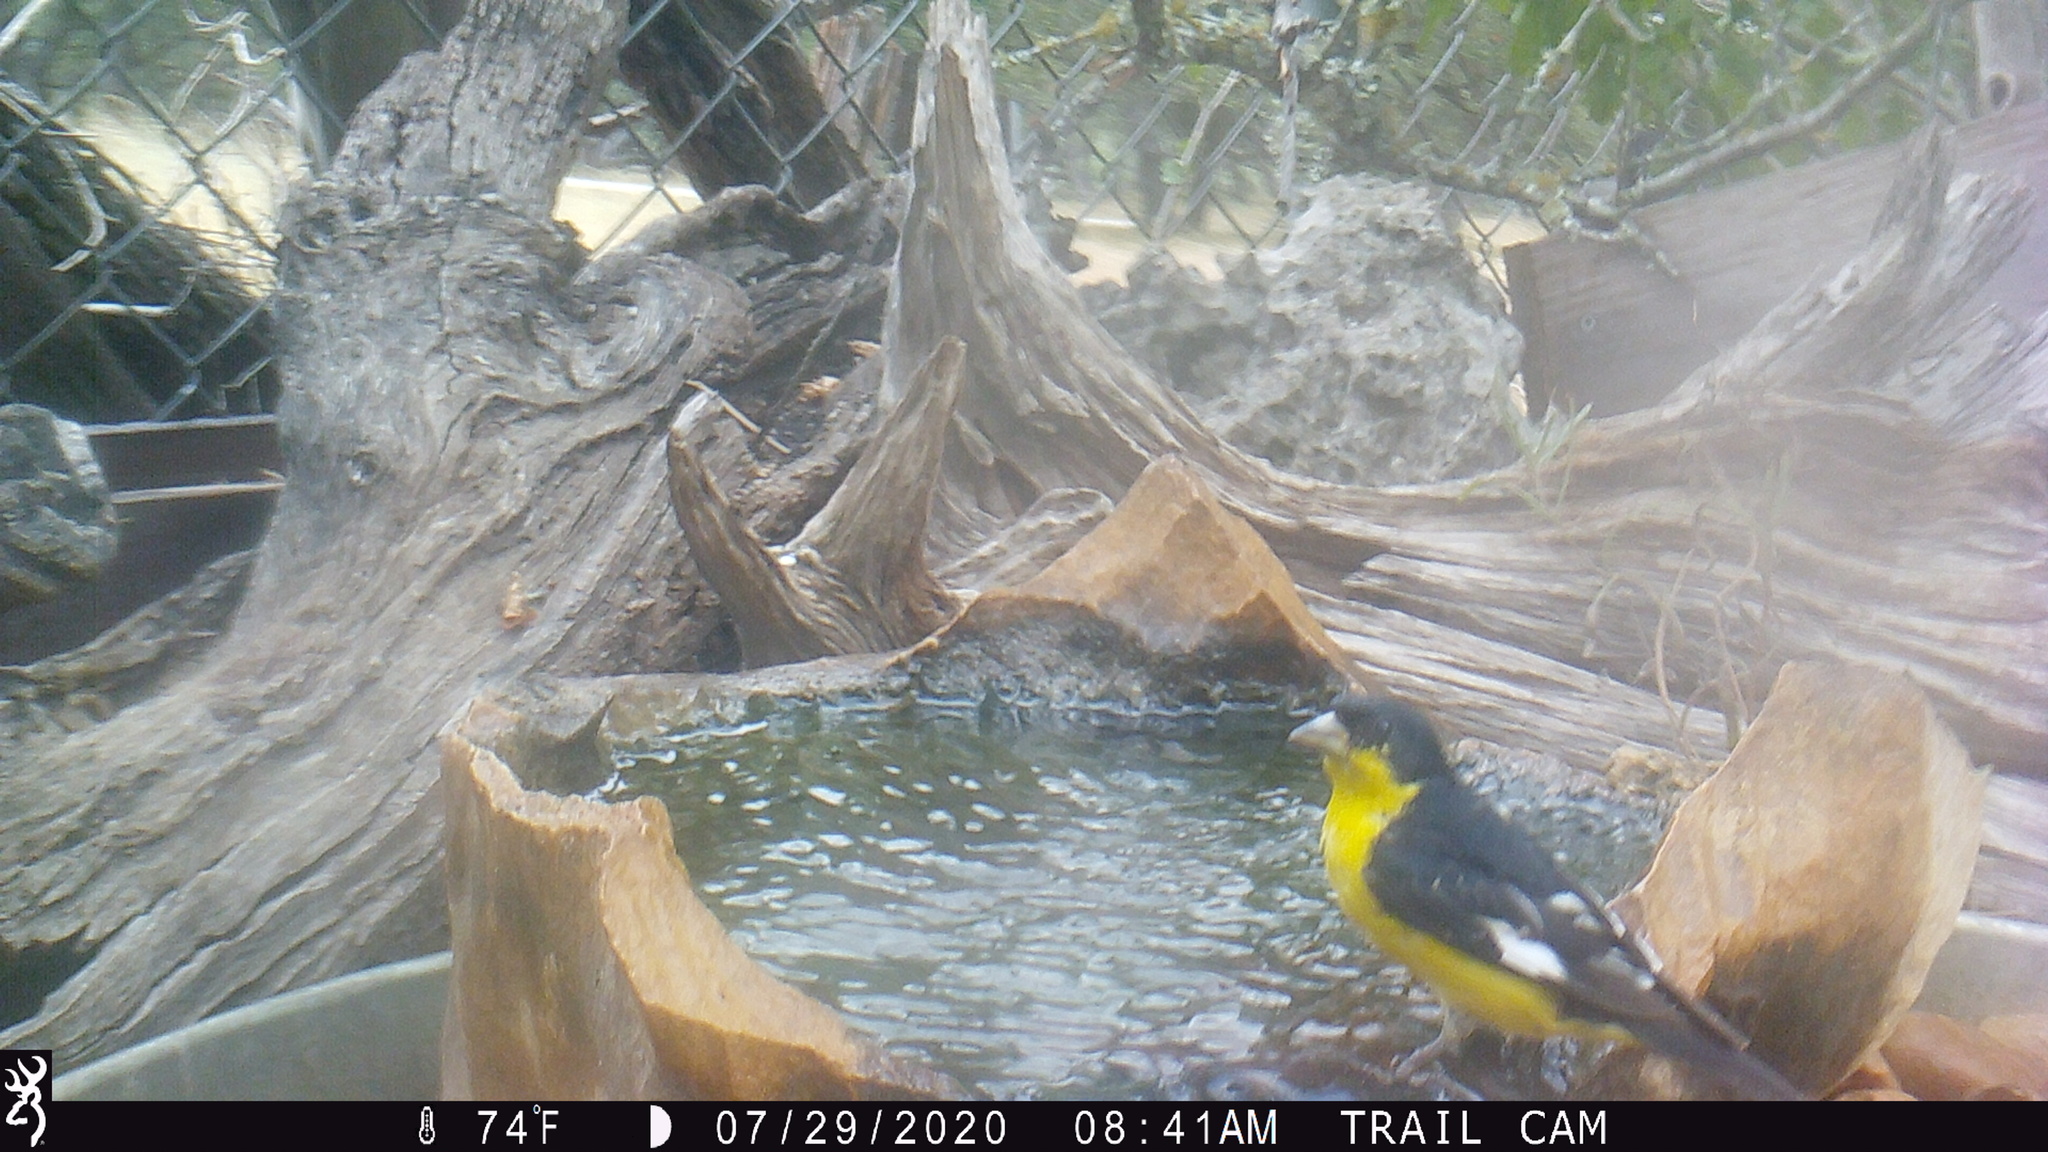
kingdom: Animalia
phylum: Chordata
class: Aves
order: Passeriformes
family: Fringillidae
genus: Spinus
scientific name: Spinus psaltria
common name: Lesser goldfinch
